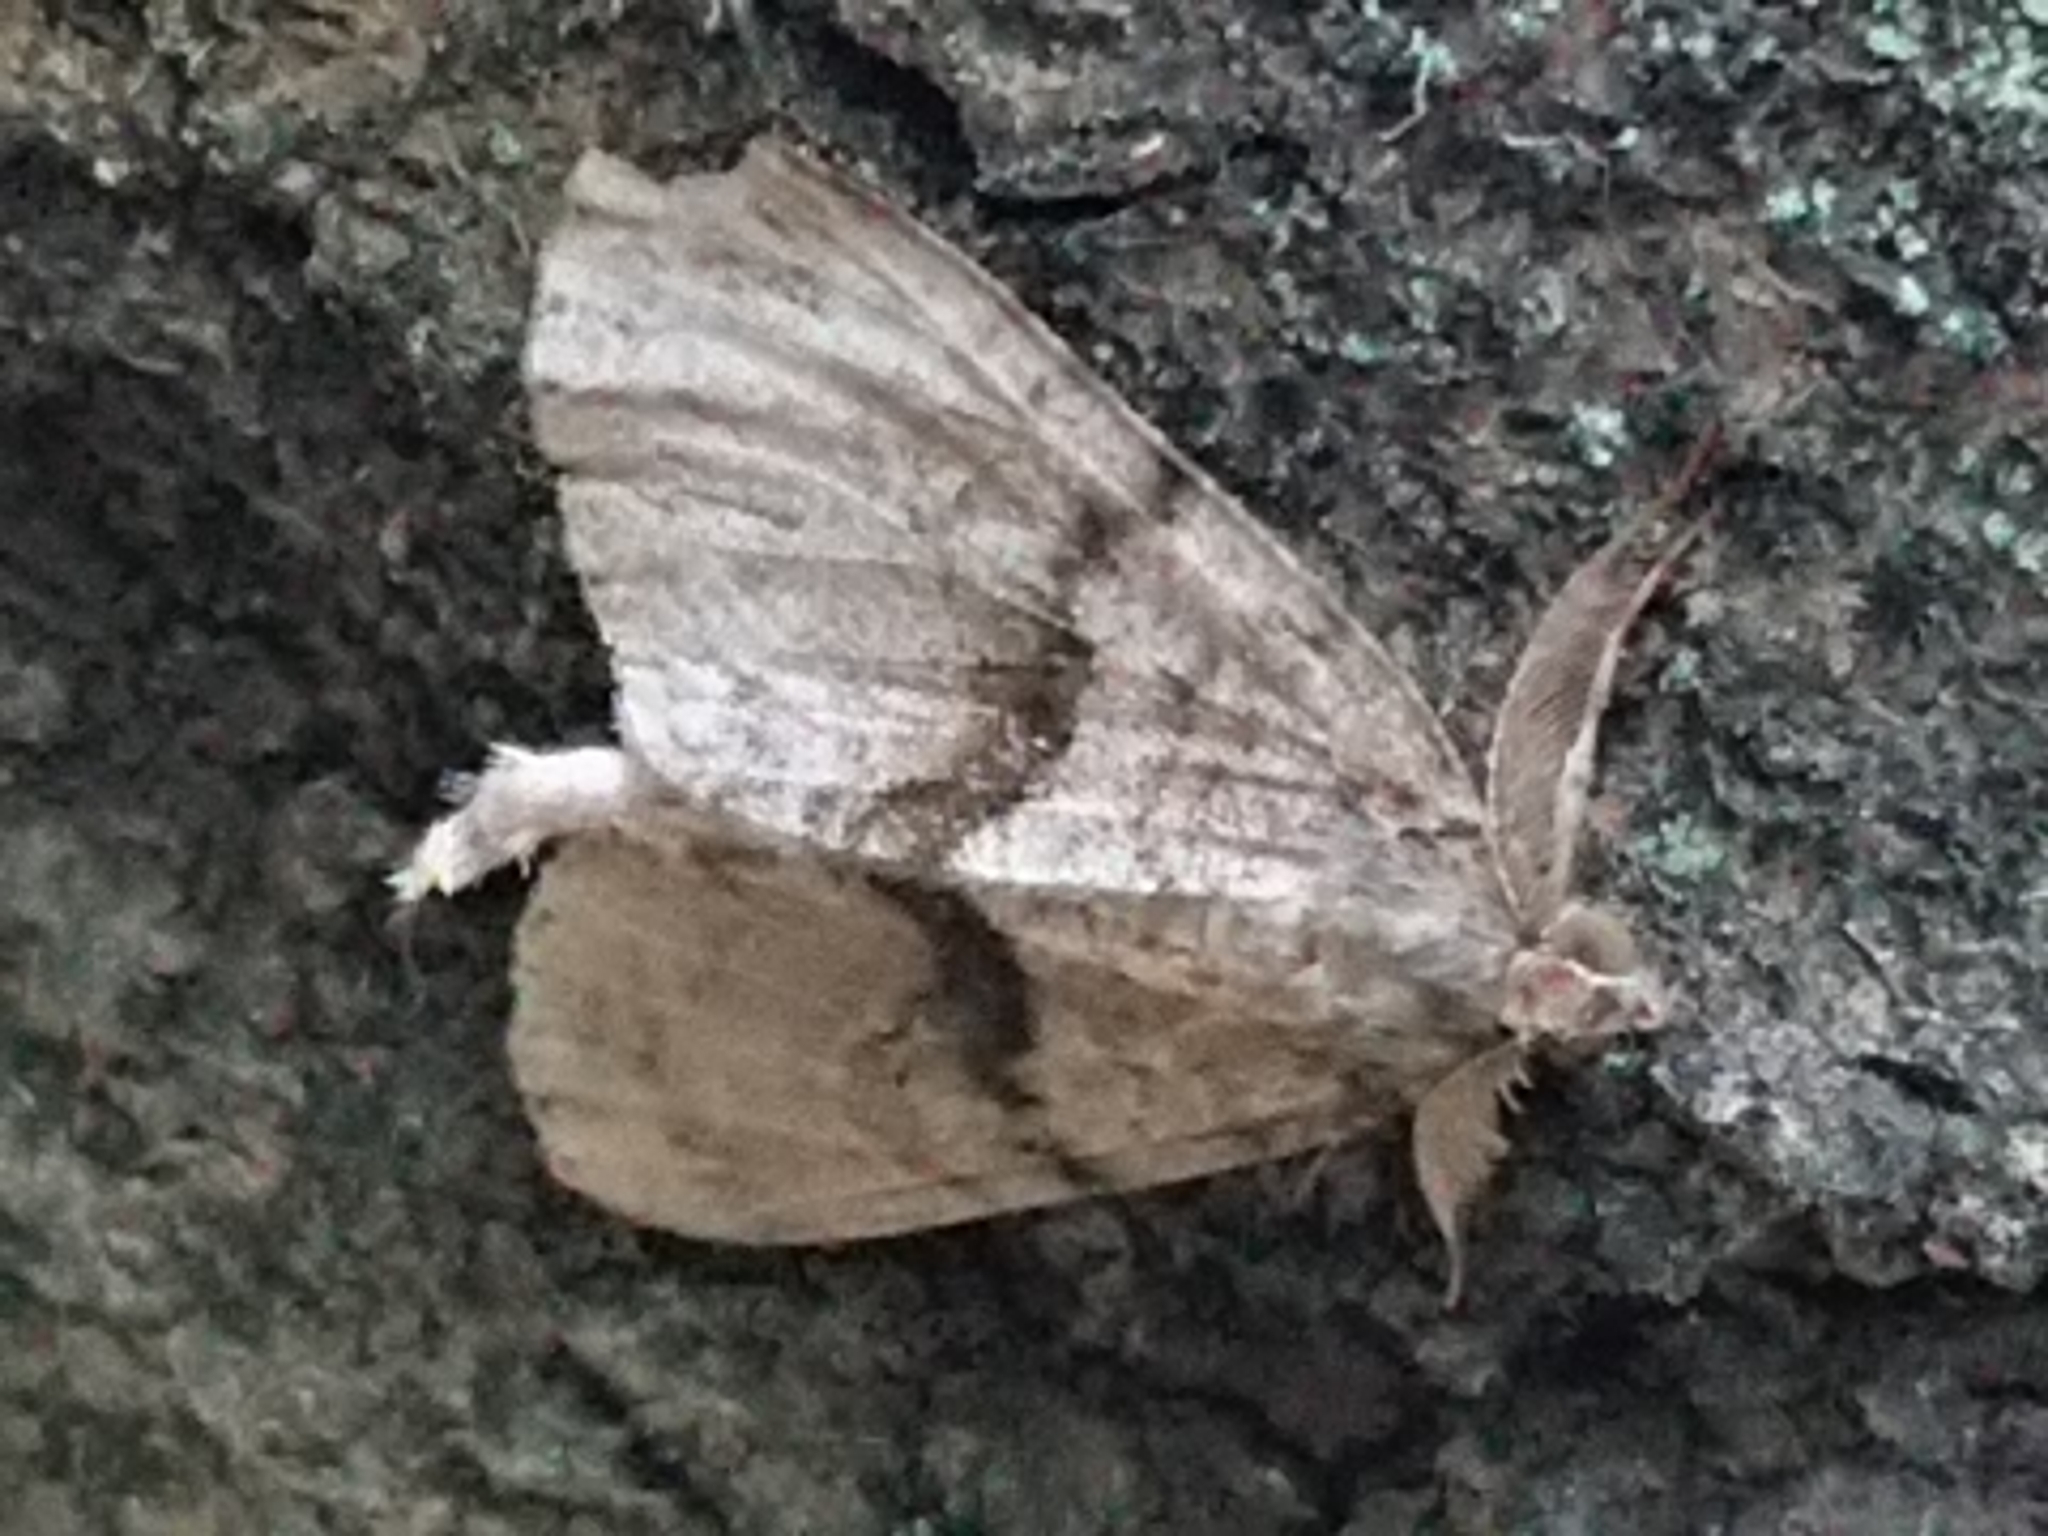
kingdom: Animalia
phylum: Arthropoda
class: Insecta
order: Lepidoptera
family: Geometridae
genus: Pseudocoremia
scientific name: Pseudocoremia suavis
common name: Common forest looper
